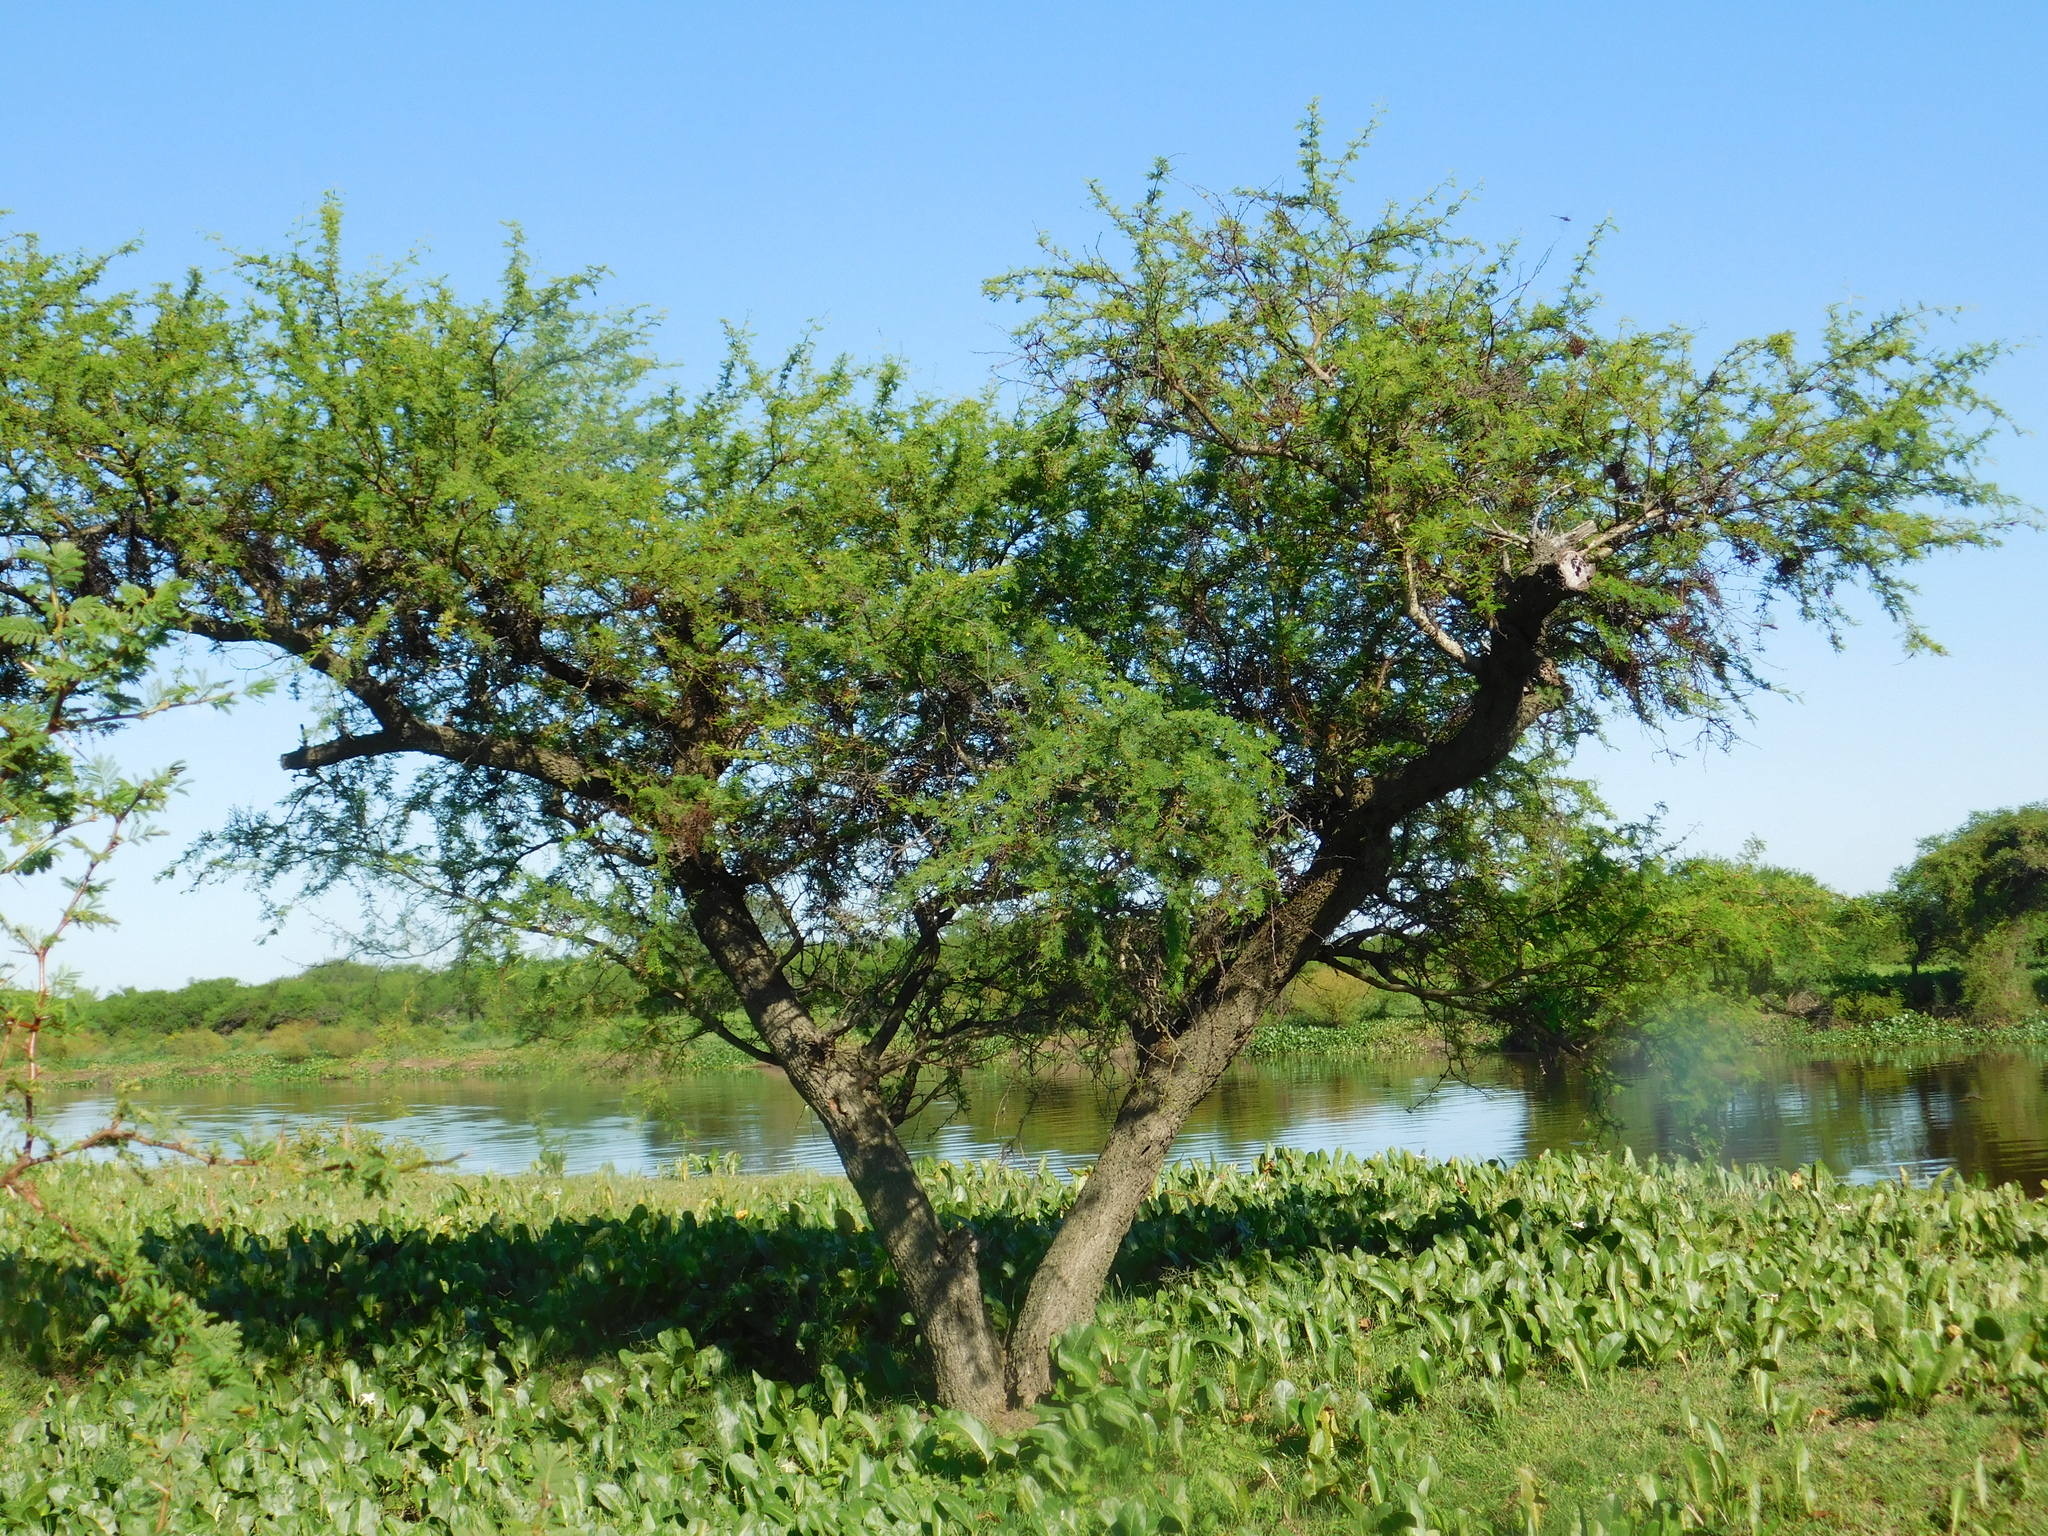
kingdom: Plantae
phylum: Tracheophyta
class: Magnoliopsida
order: Fabales
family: Fabaceae
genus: Vachellia
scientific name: Vachellia caven
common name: Roman cassie
